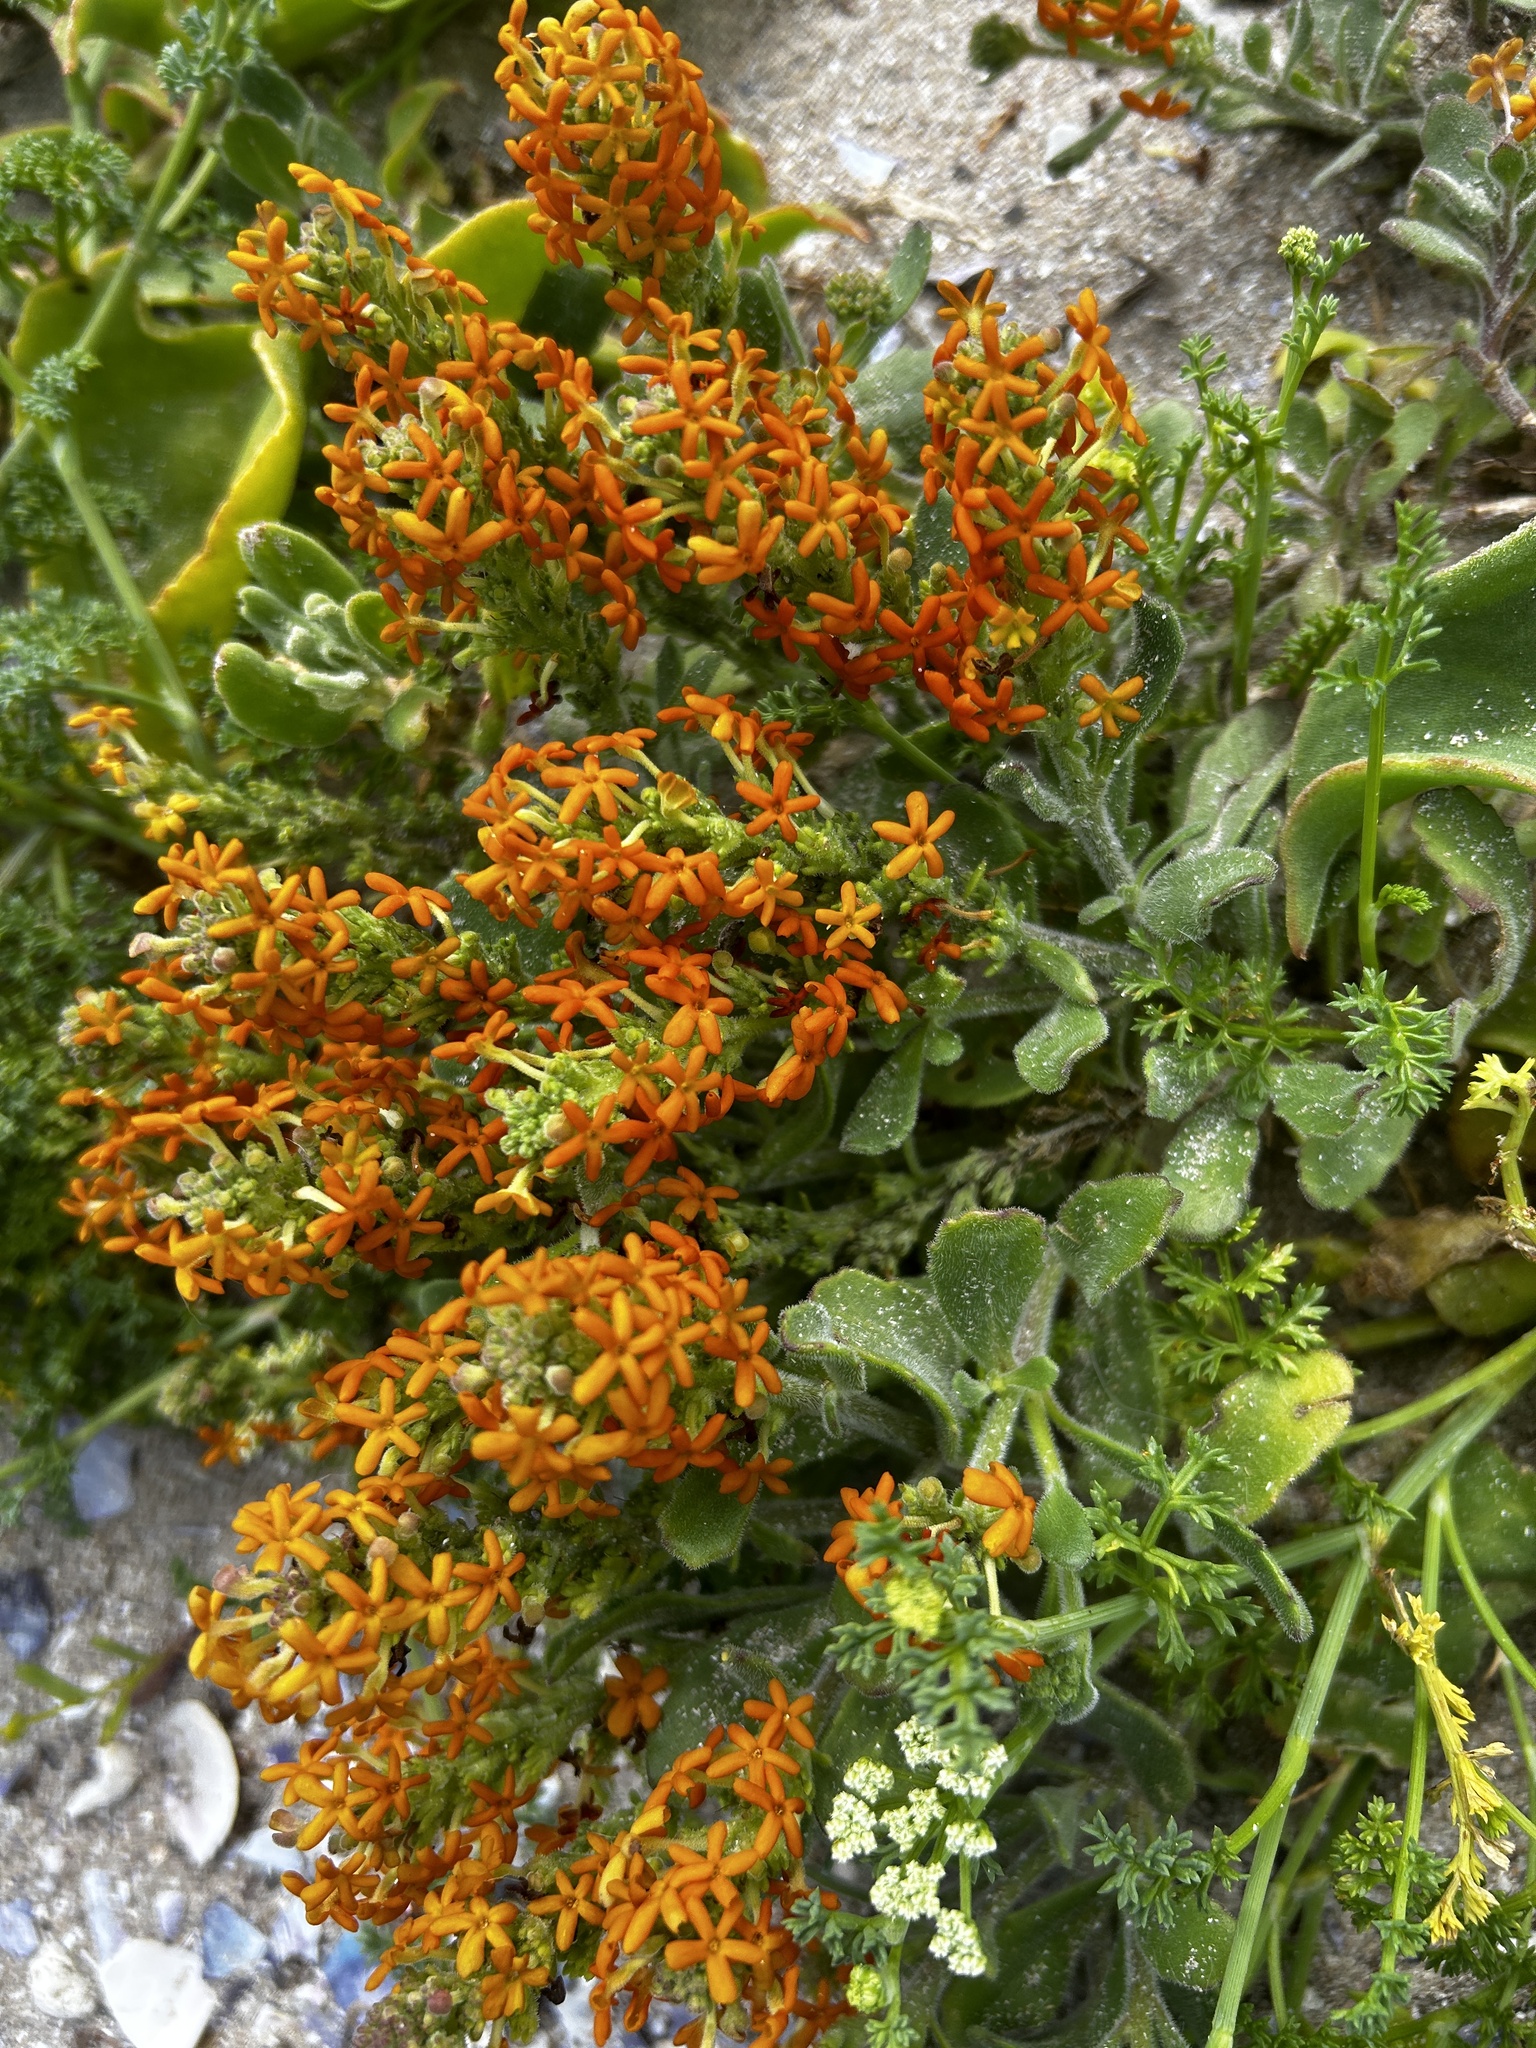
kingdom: Plantae
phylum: Tracheophyta
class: Magnoliopsida
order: Lamiales
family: Scrophulariaceae
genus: Manulea
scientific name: Manulea tomentosa
